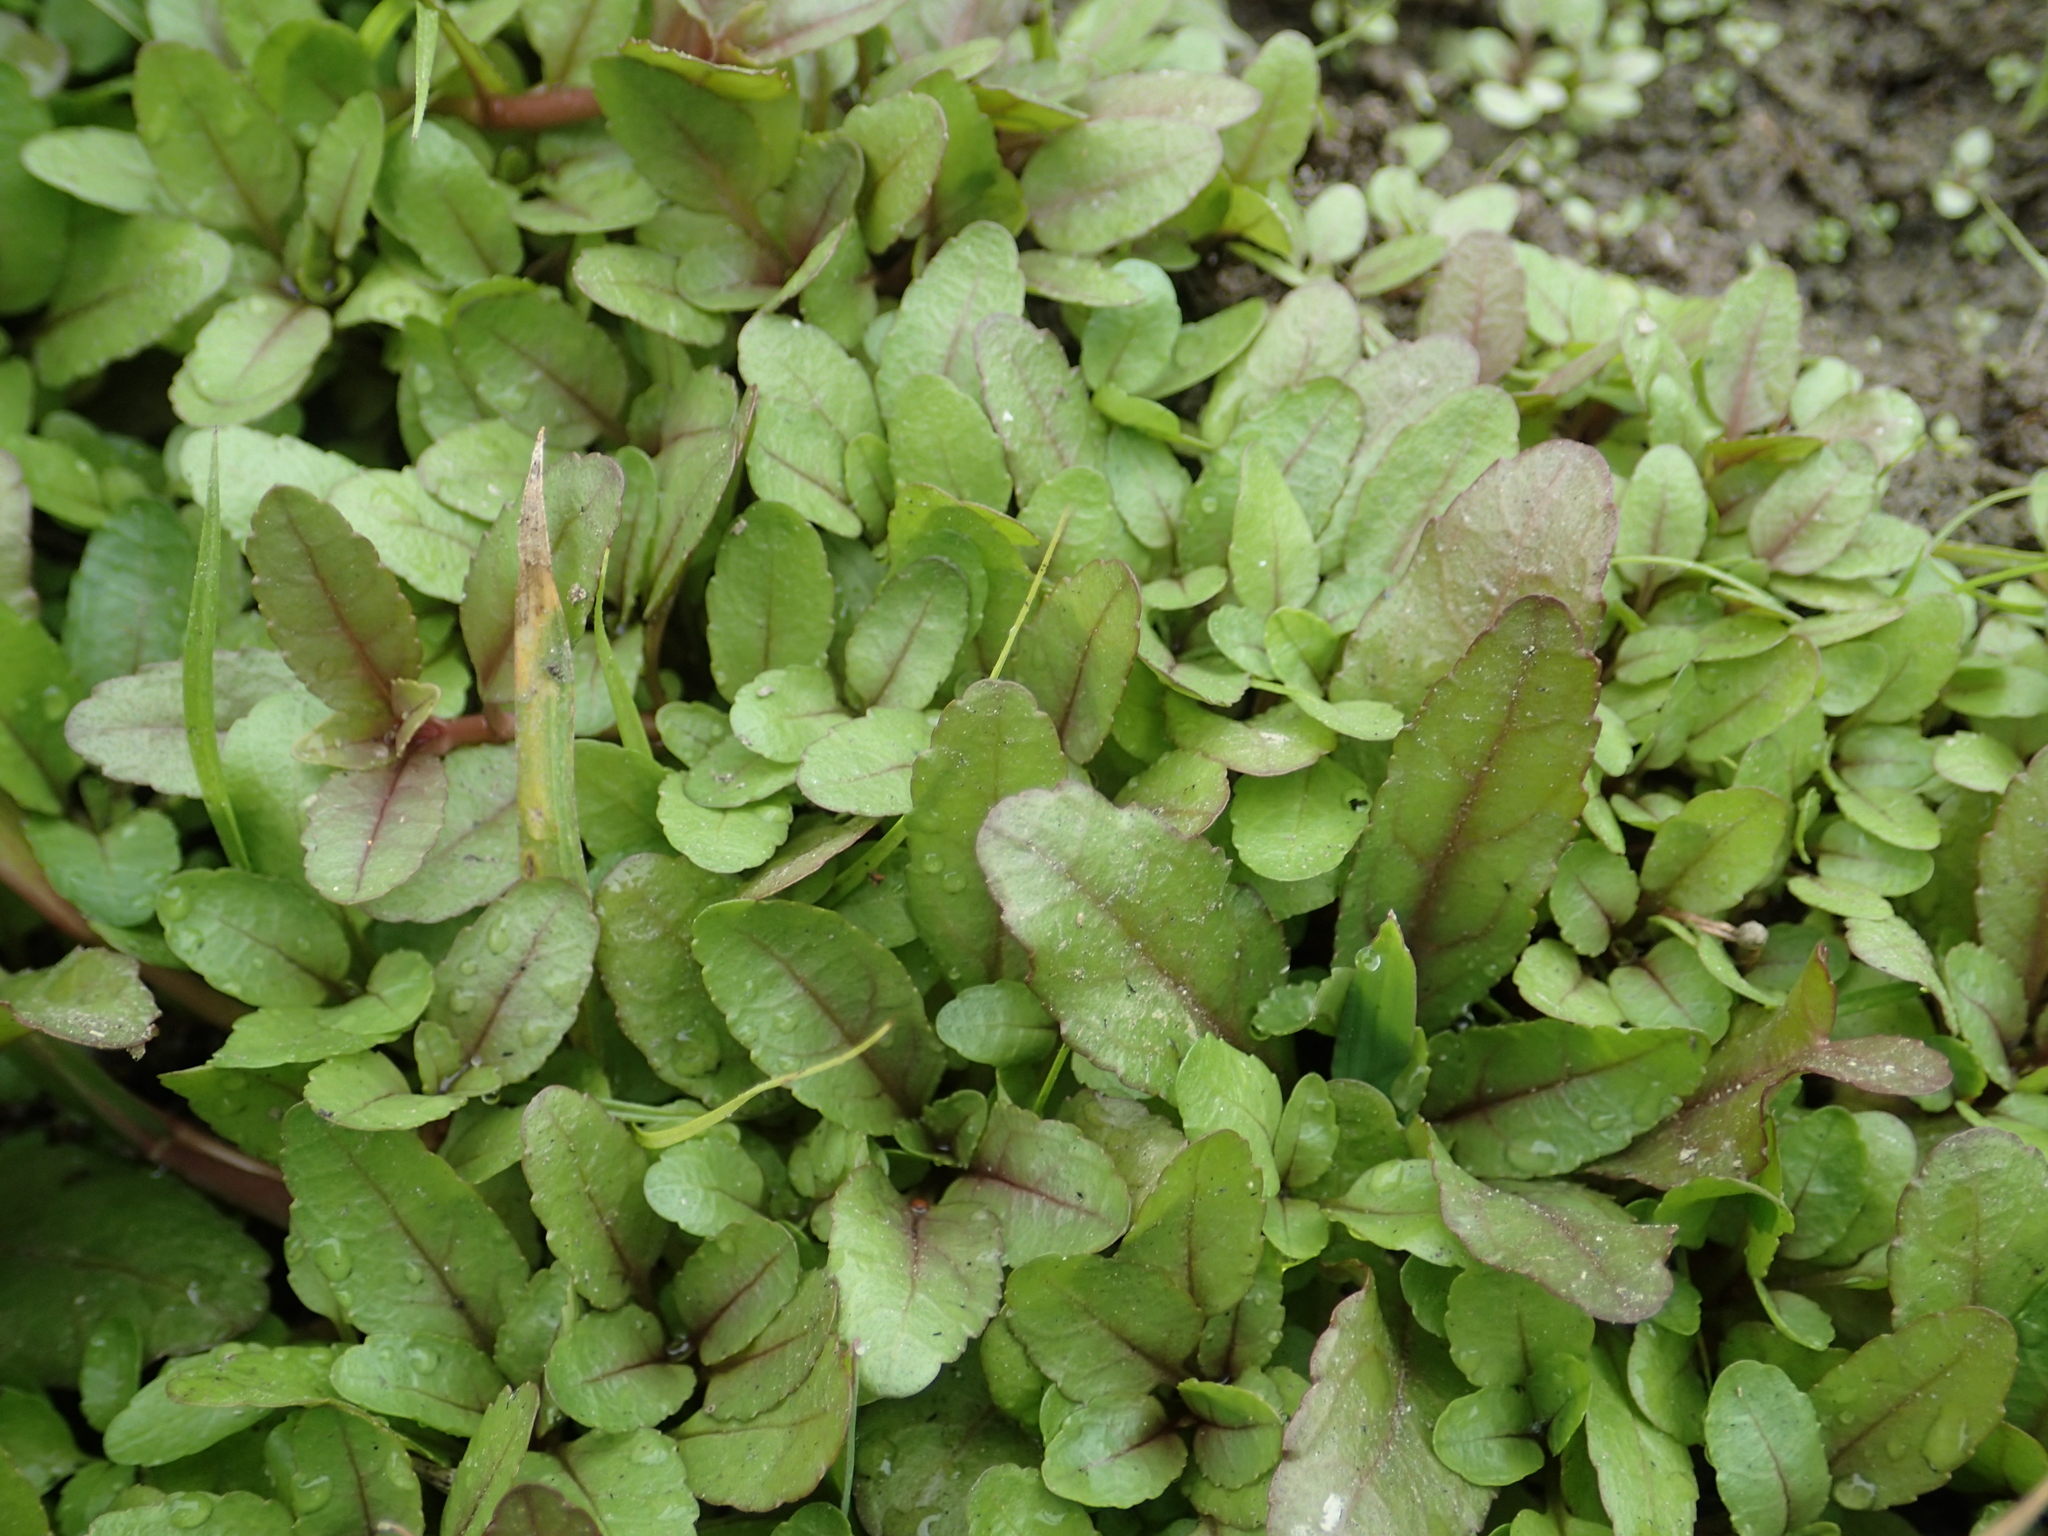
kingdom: Plantae
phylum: Tracheophyta
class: Magnoliopsida
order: Lamiales
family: Plantaginaceae
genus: Veronica
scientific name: Veronica undulata
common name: Undulate speedwell
